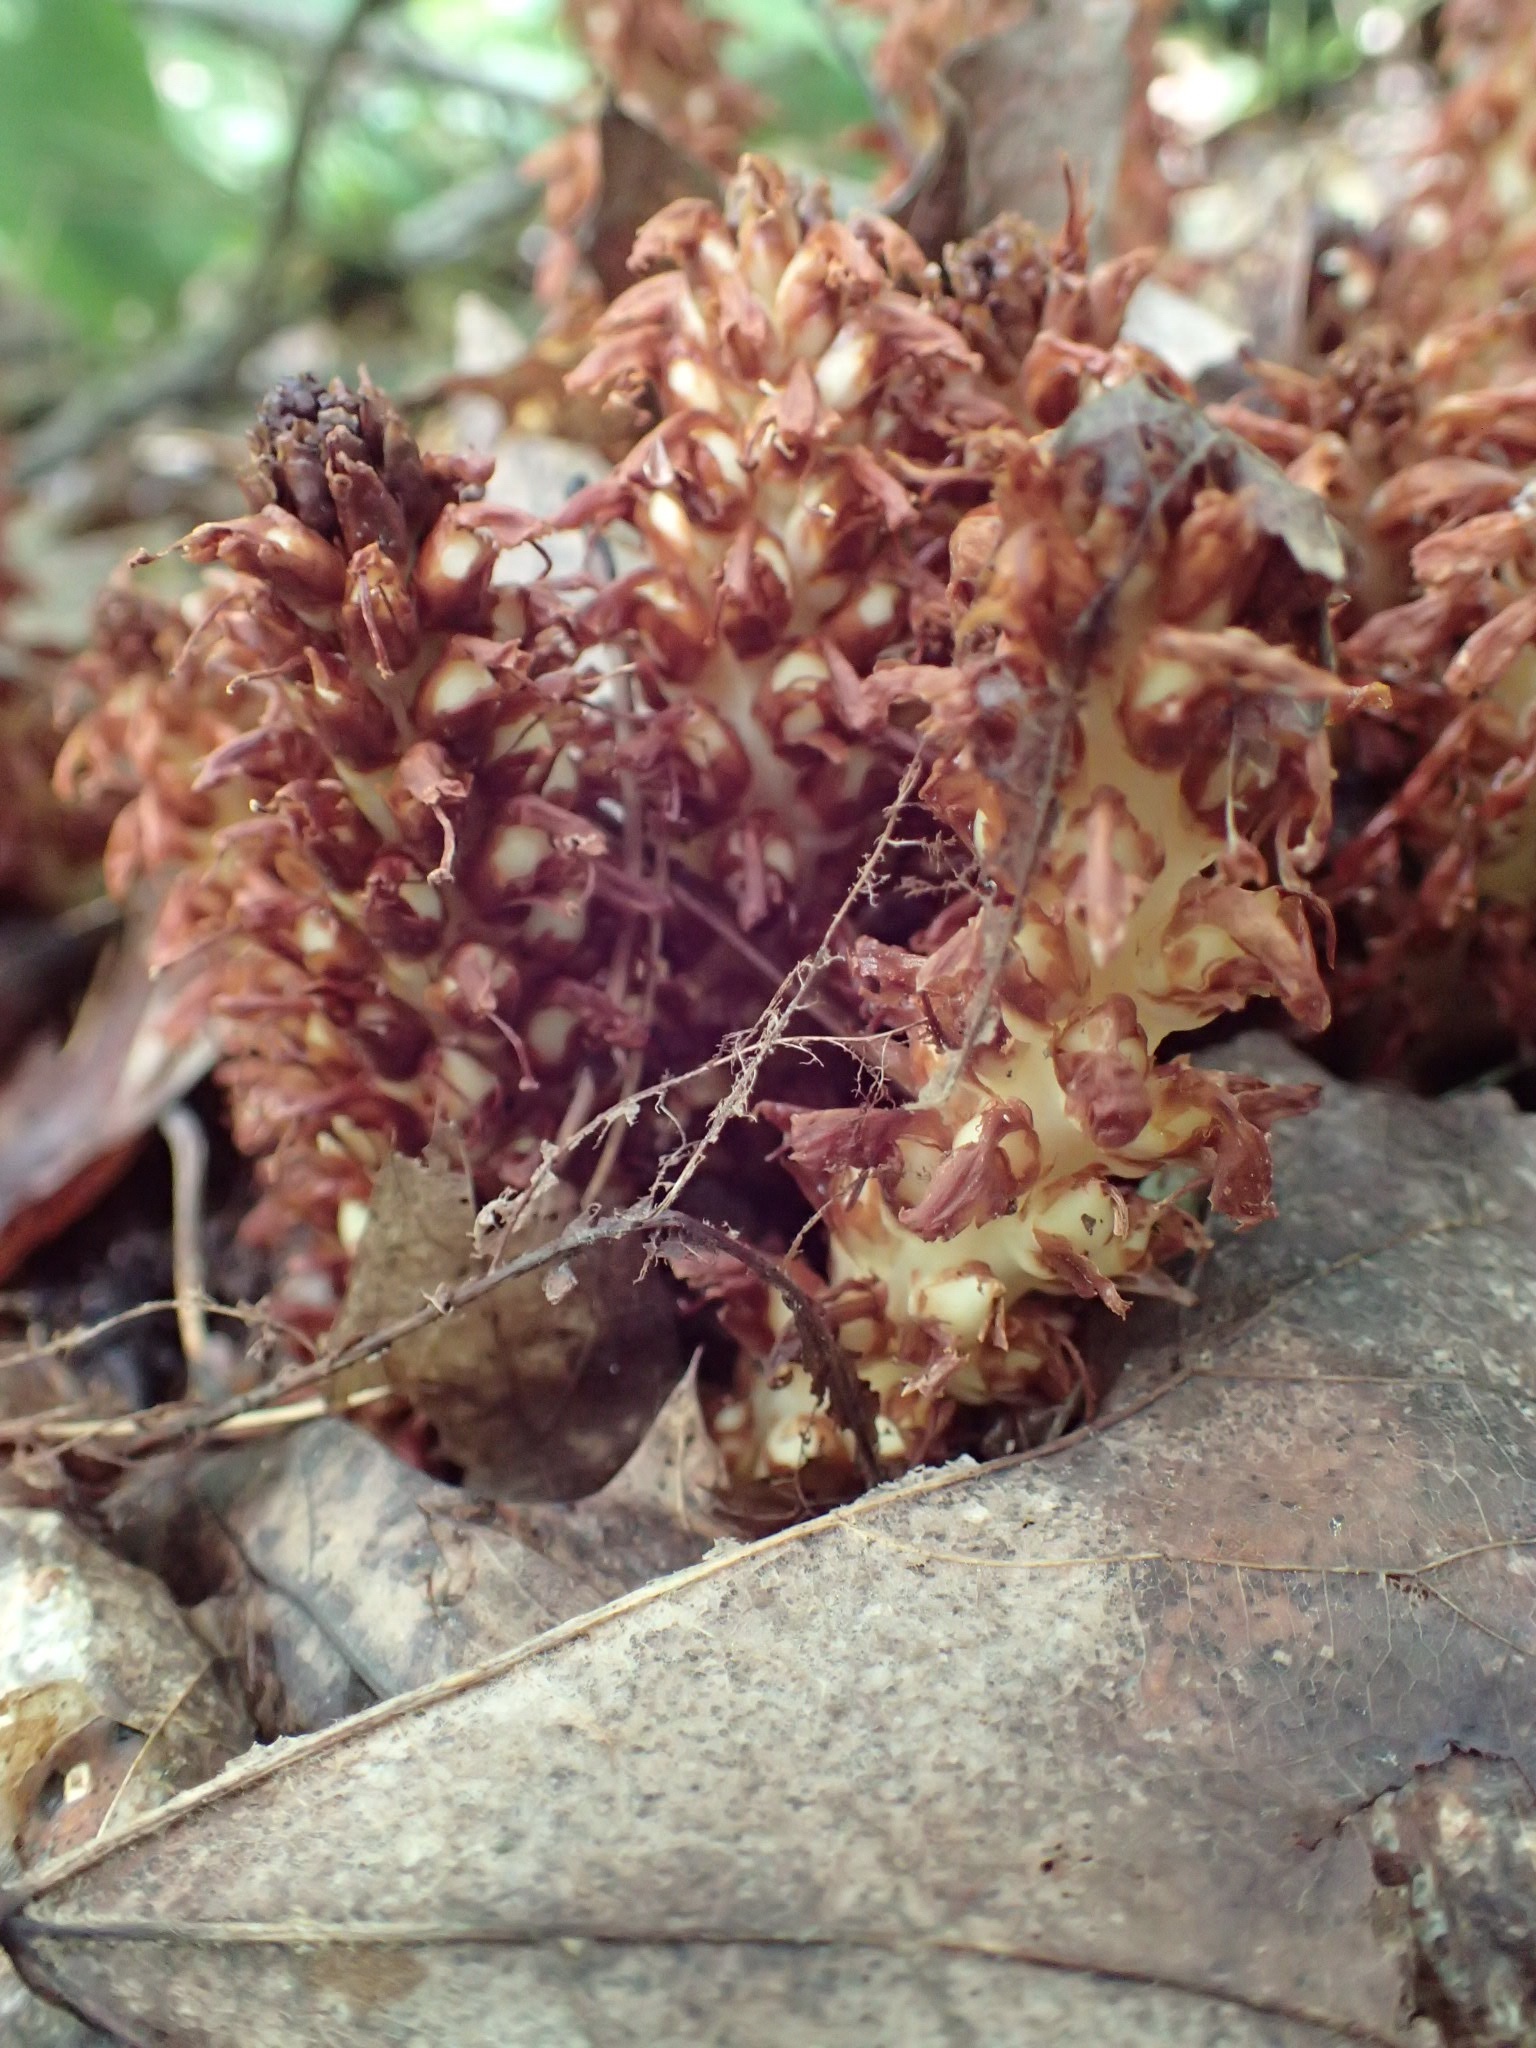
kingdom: Plantae
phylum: Tracheophyta
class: Magnoliopsida
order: Lamiales
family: Orobanchaceae
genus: Conopholis
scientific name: Conopholis americana
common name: American cancer-root
